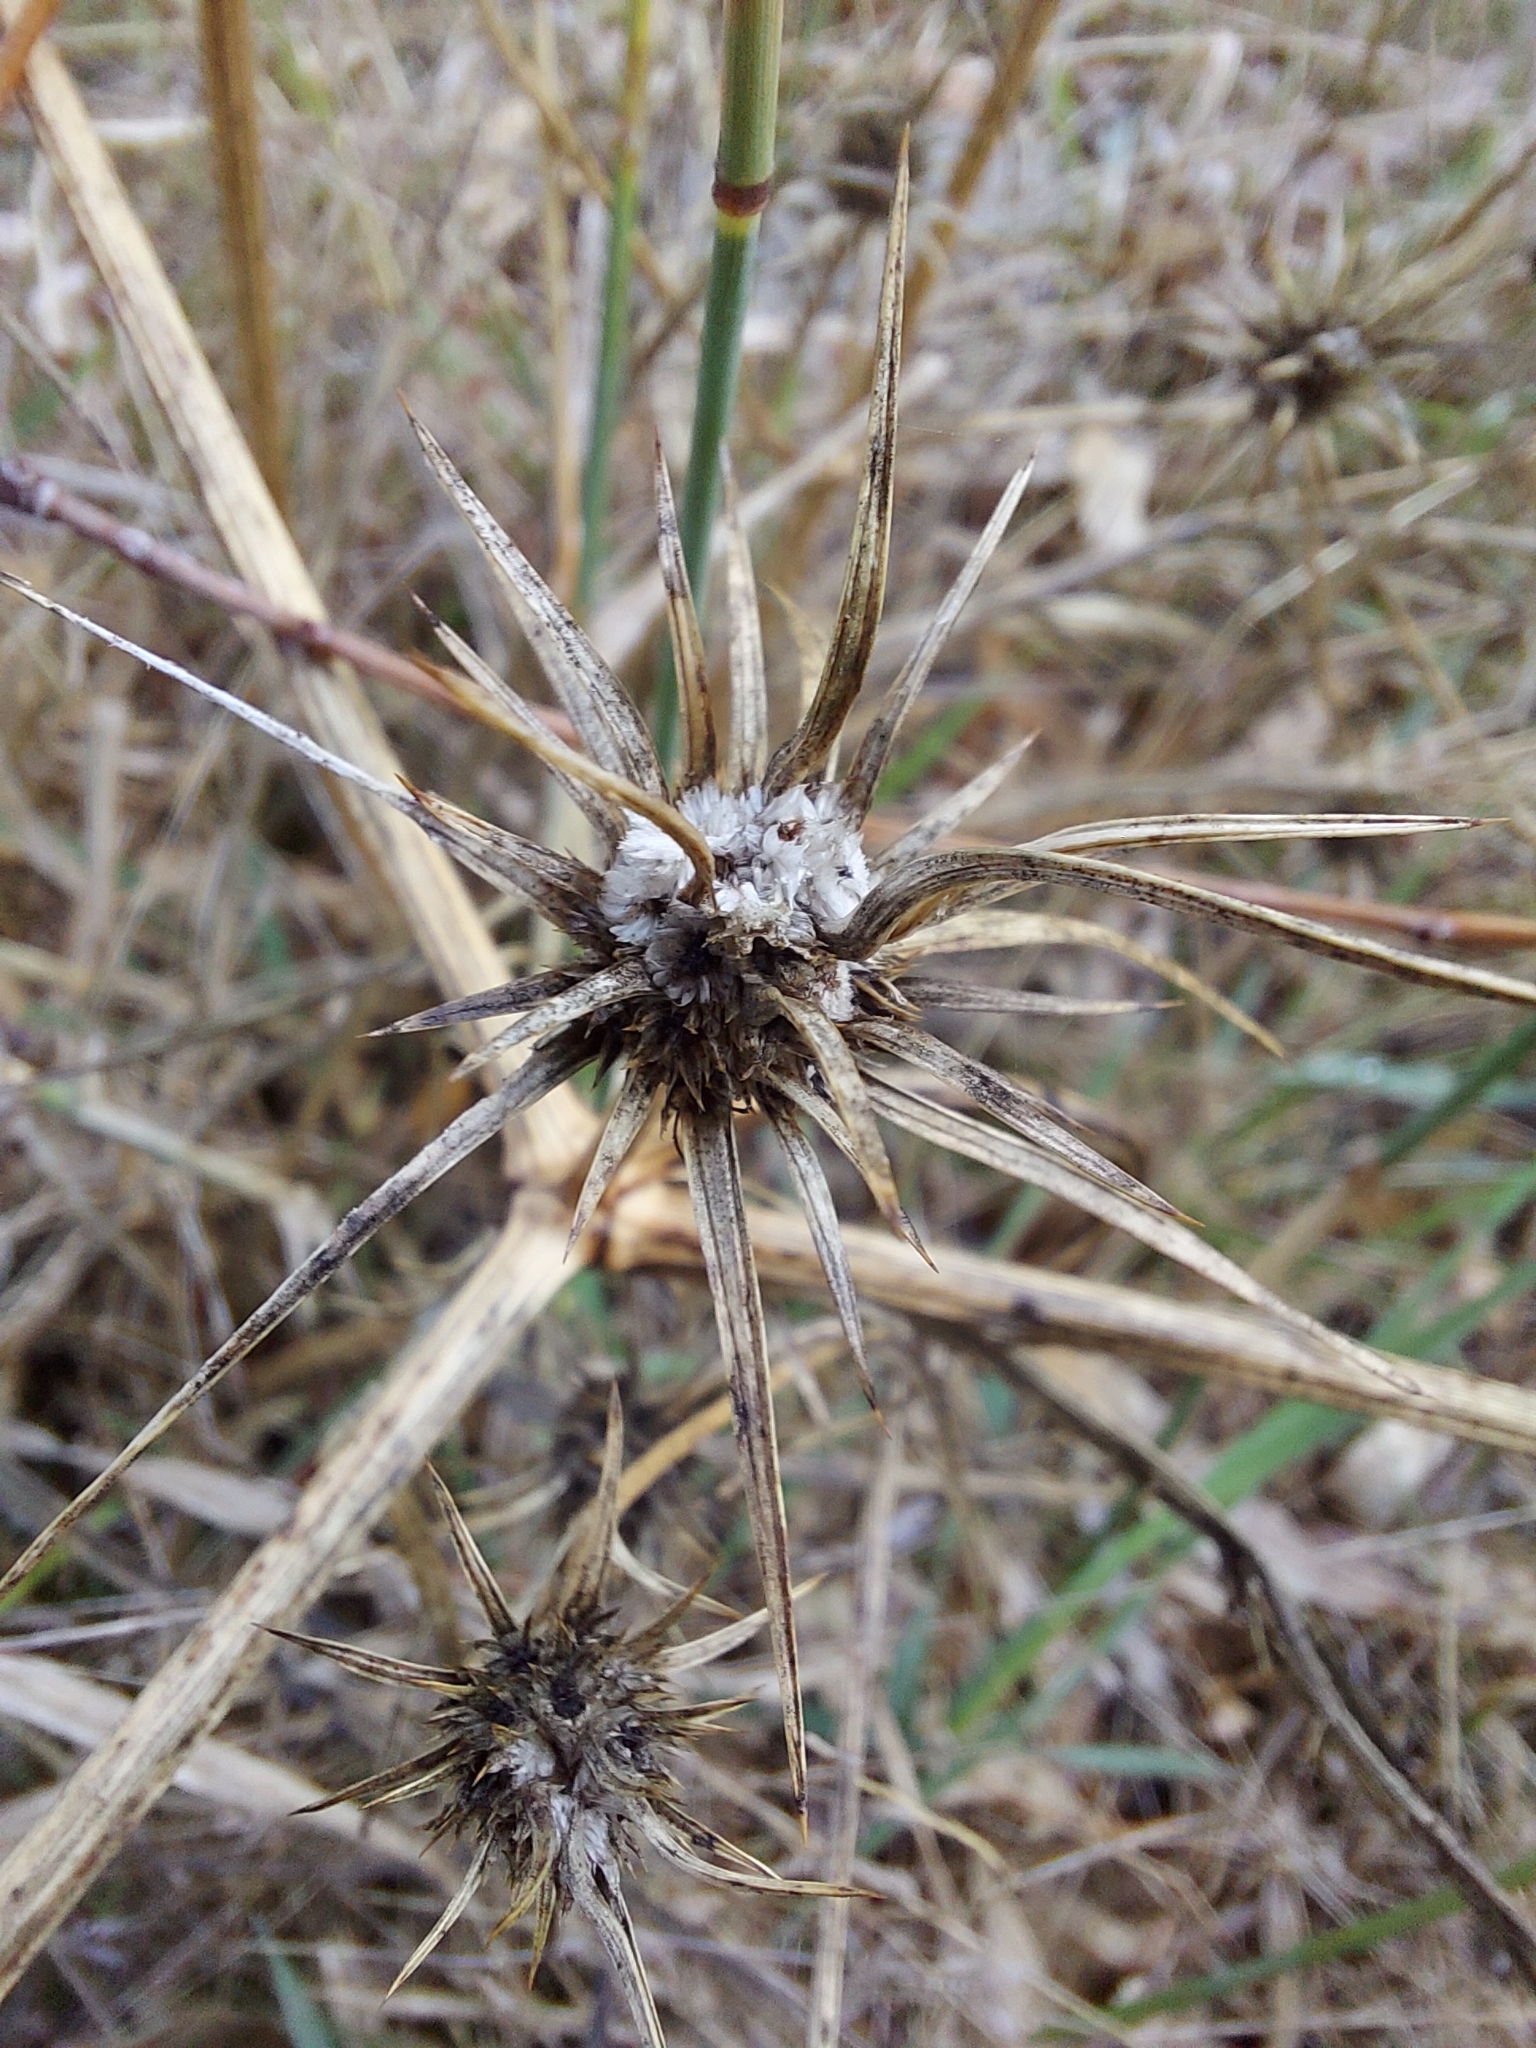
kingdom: Plantae
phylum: Tracheophyta
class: Magnoliopsida
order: Apiales
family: Apiaceae
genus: Eryngium
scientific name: Eryngium ovinum
